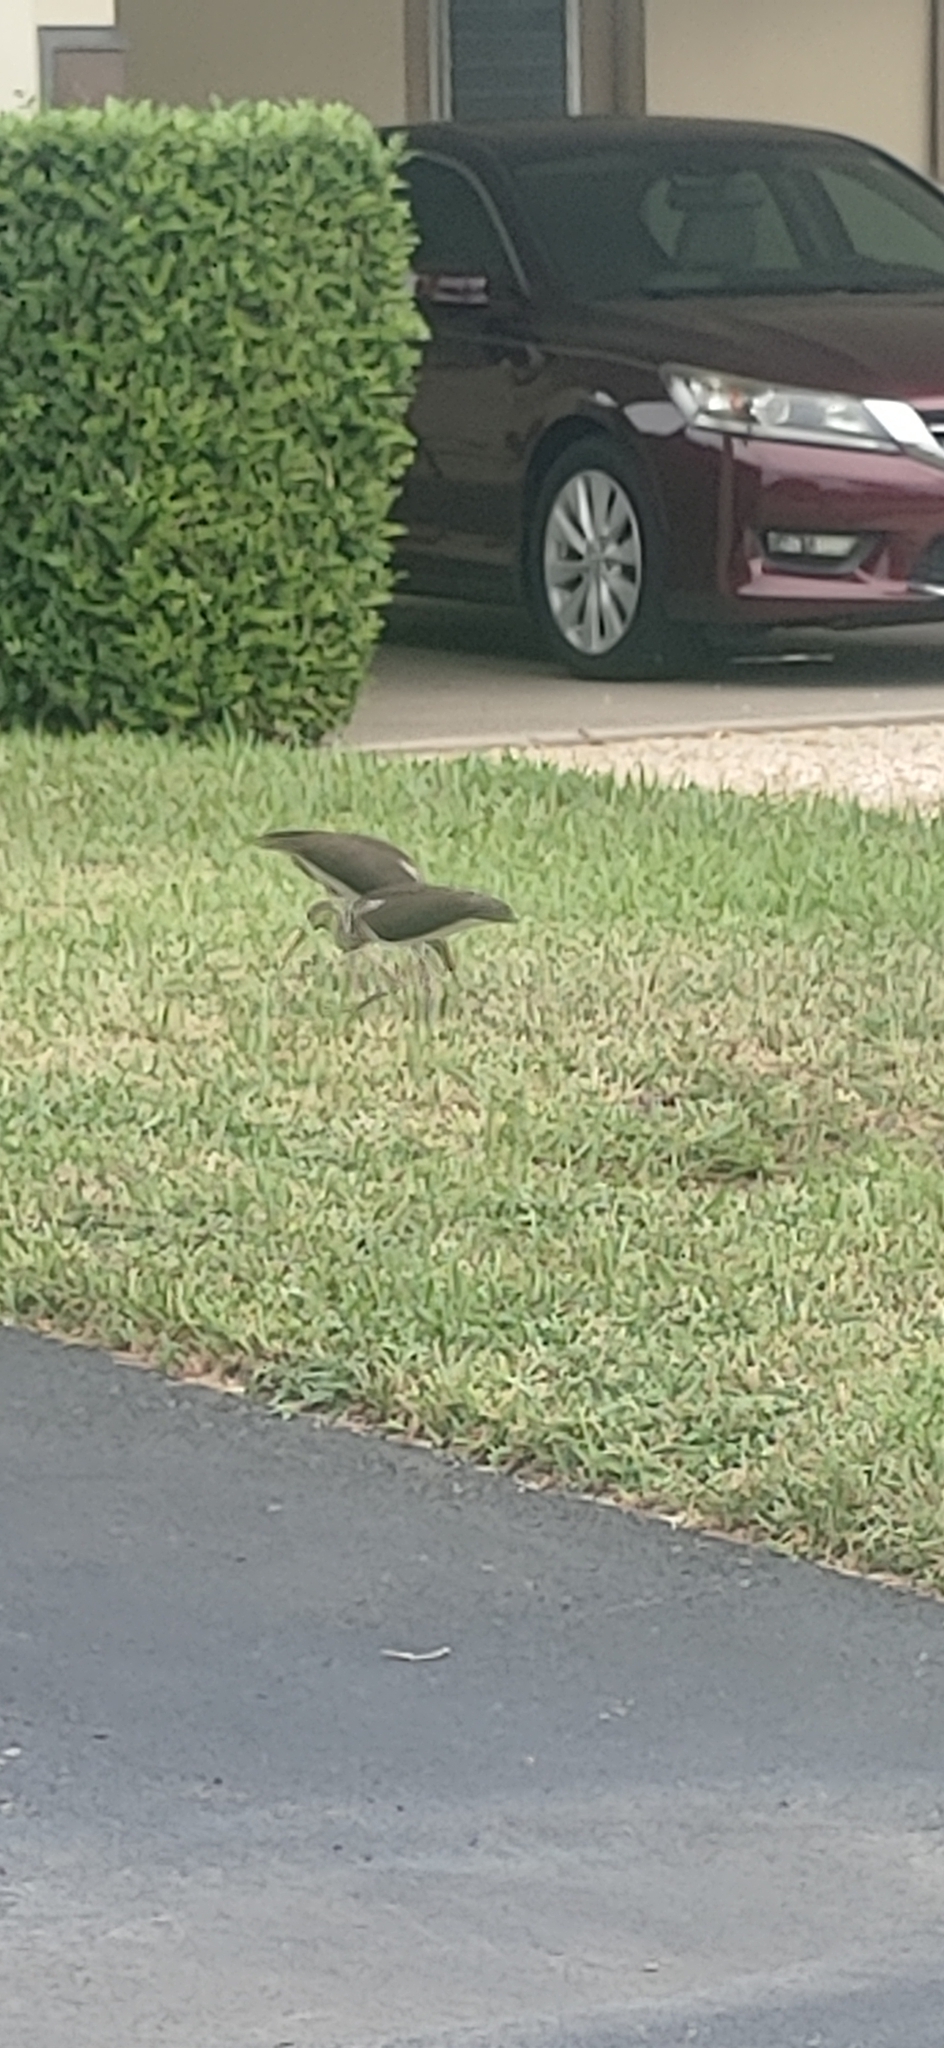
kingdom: Animalia
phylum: Chordata
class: Aves
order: Pelecaniformes
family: Threskiornithidae
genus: Eudocimus
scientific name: Eudocimus albus
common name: White ibis
